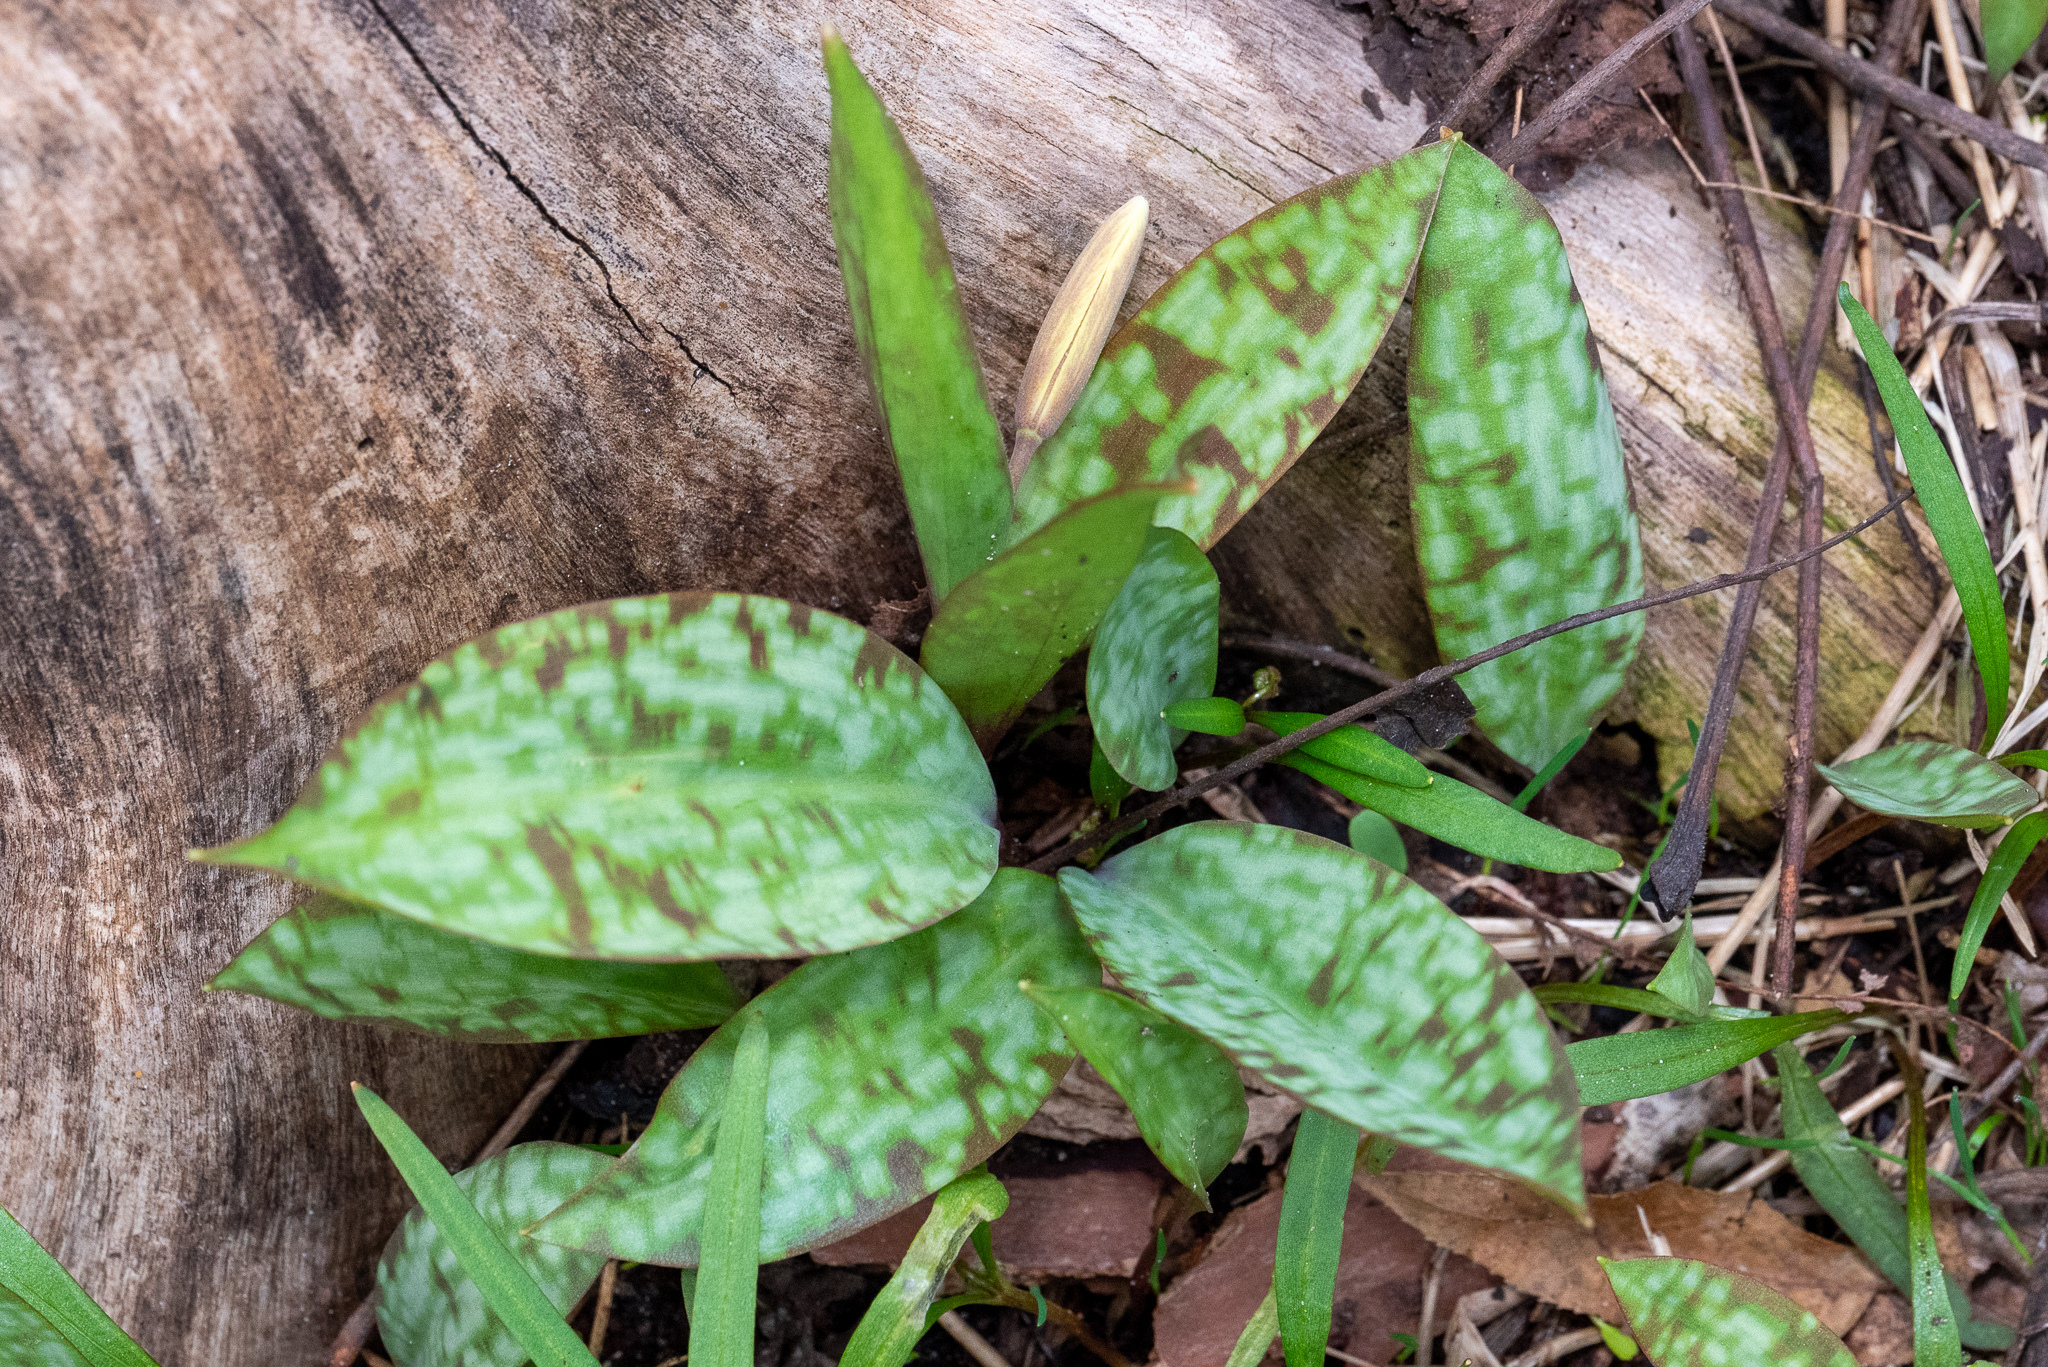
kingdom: Plantae
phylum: Tracheophyta
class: Liliopsida
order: Liliales
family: Liliaceae
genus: Erythronium
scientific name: Erythronium americanum
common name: Yellow adder's-tongue
